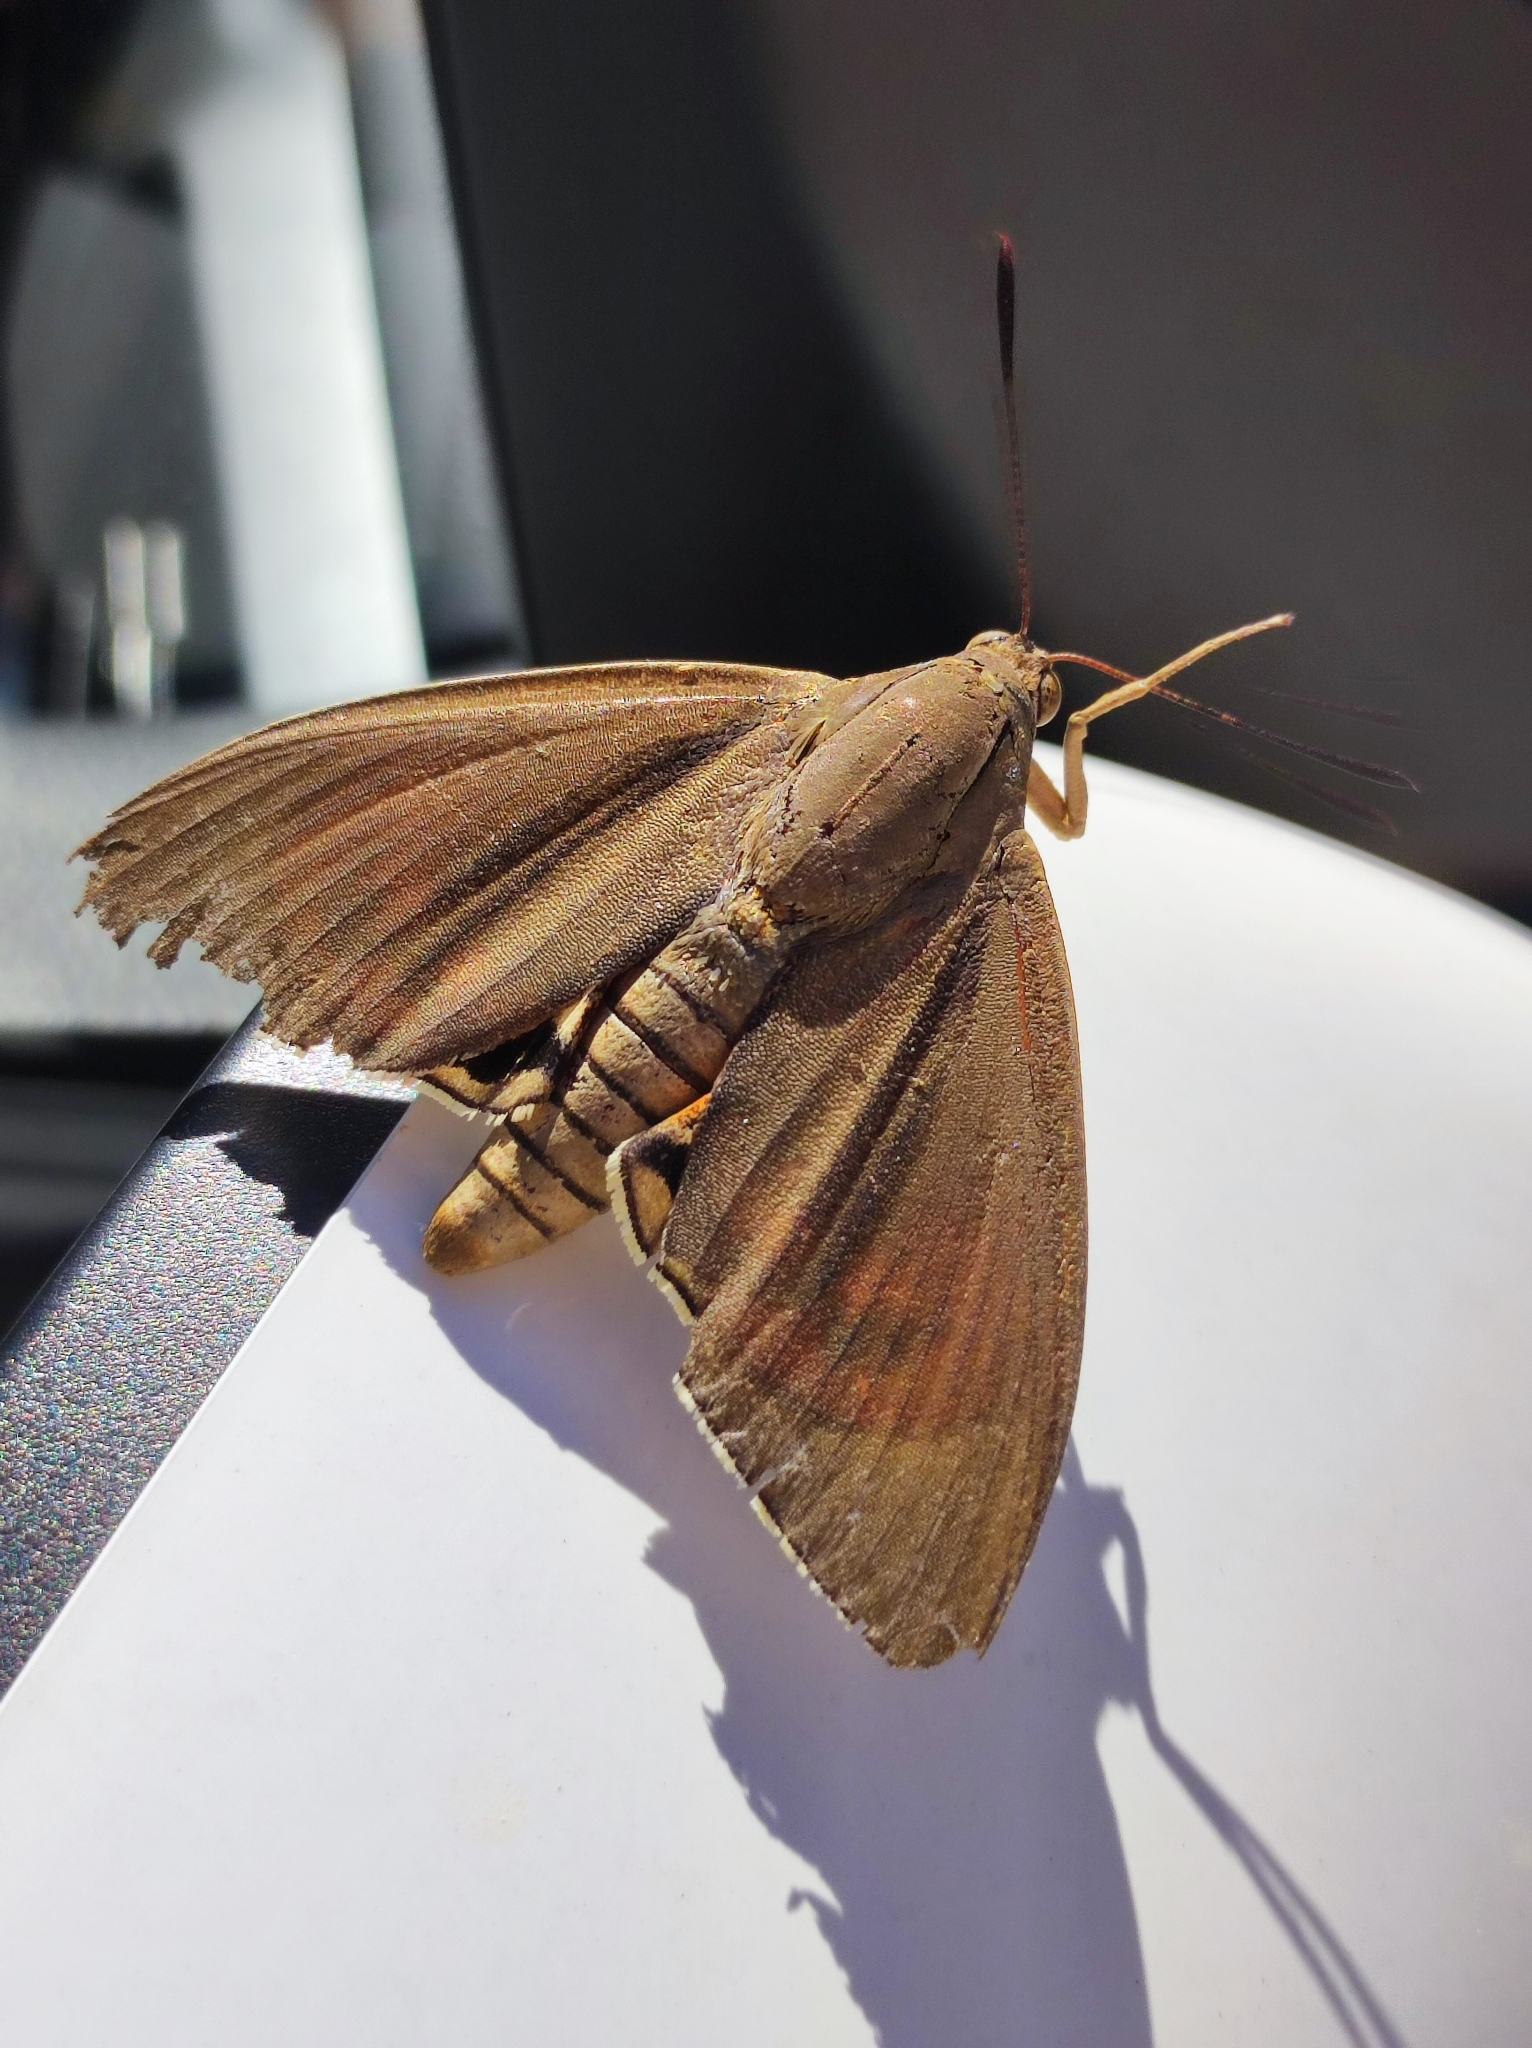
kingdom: Animalia
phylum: Arthropoda
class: Insecta
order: Lepidoptera
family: Castniidae
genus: Paysandisia
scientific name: Paysandisia archon
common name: Palm moth
